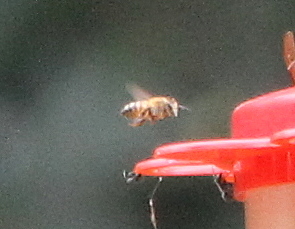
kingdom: Animalia
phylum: Arthropoda
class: Insecta
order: Hymenoptera
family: Apidae
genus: Apis
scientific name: Apis mellifera
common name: Honey bee
